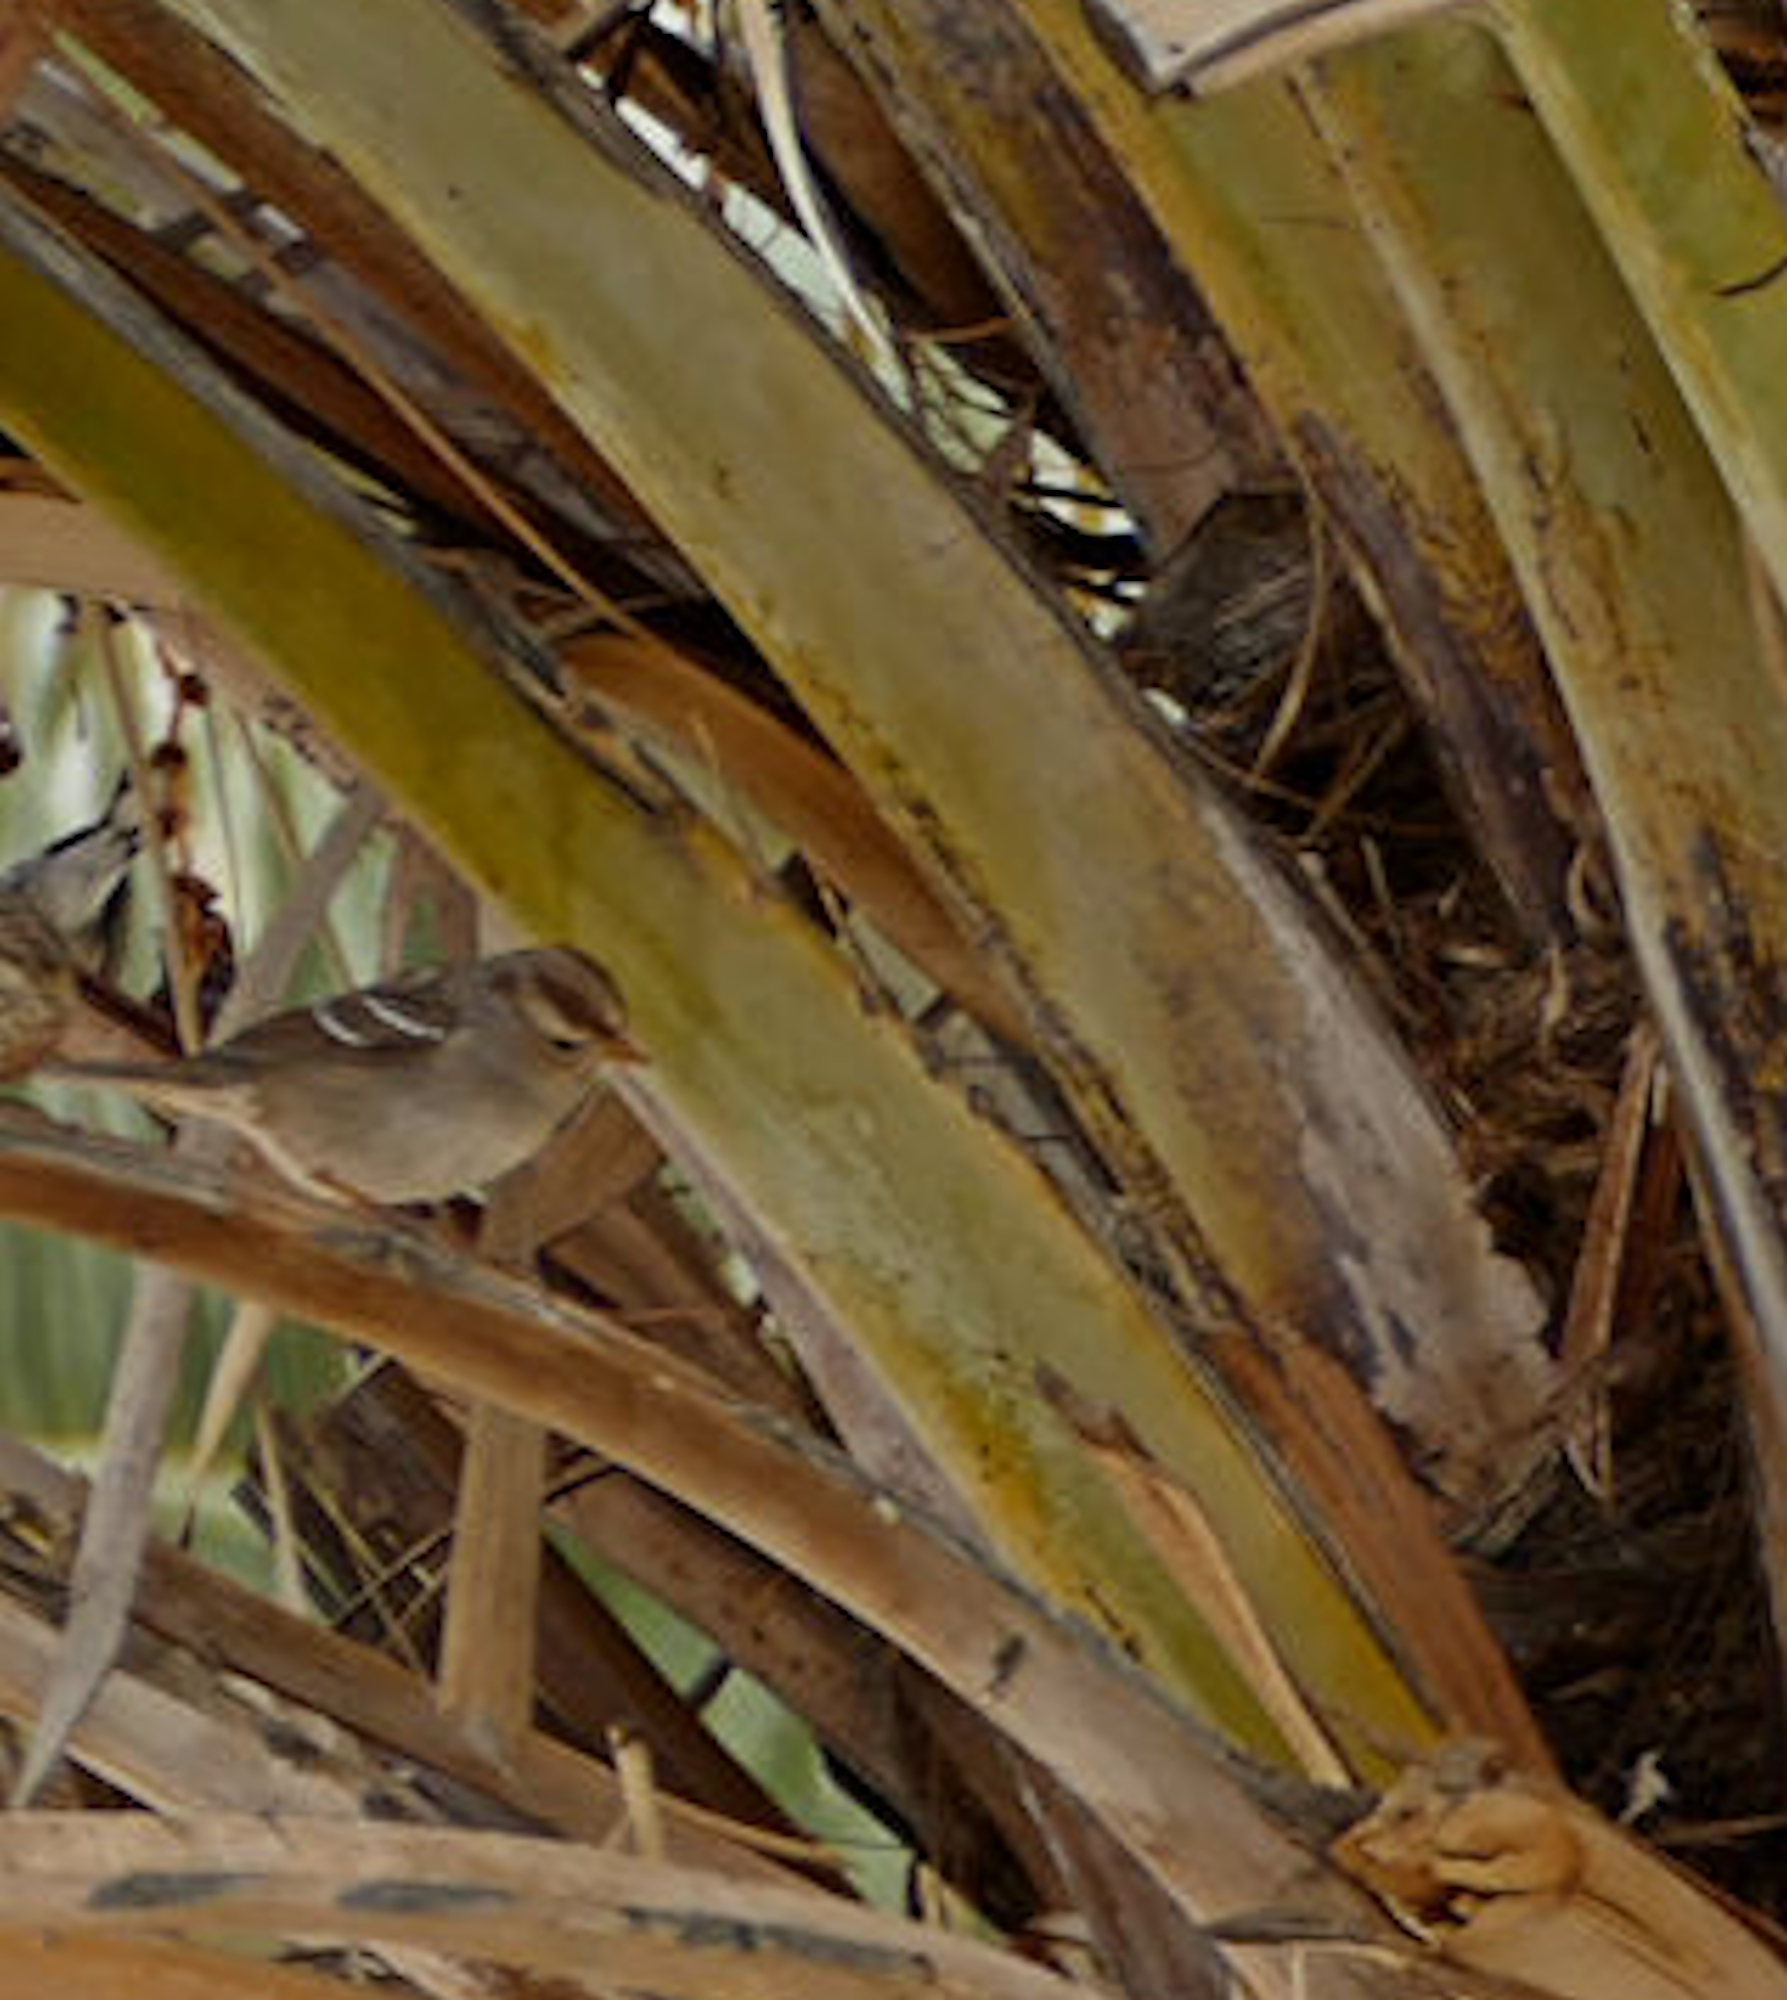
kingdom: Animalia
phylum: Chordata
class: Aves
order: Passeriformes
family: Passerellidae
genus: Zonotrichia
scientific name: Zonotrichia leucophrys
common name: White-crowned sparrow
